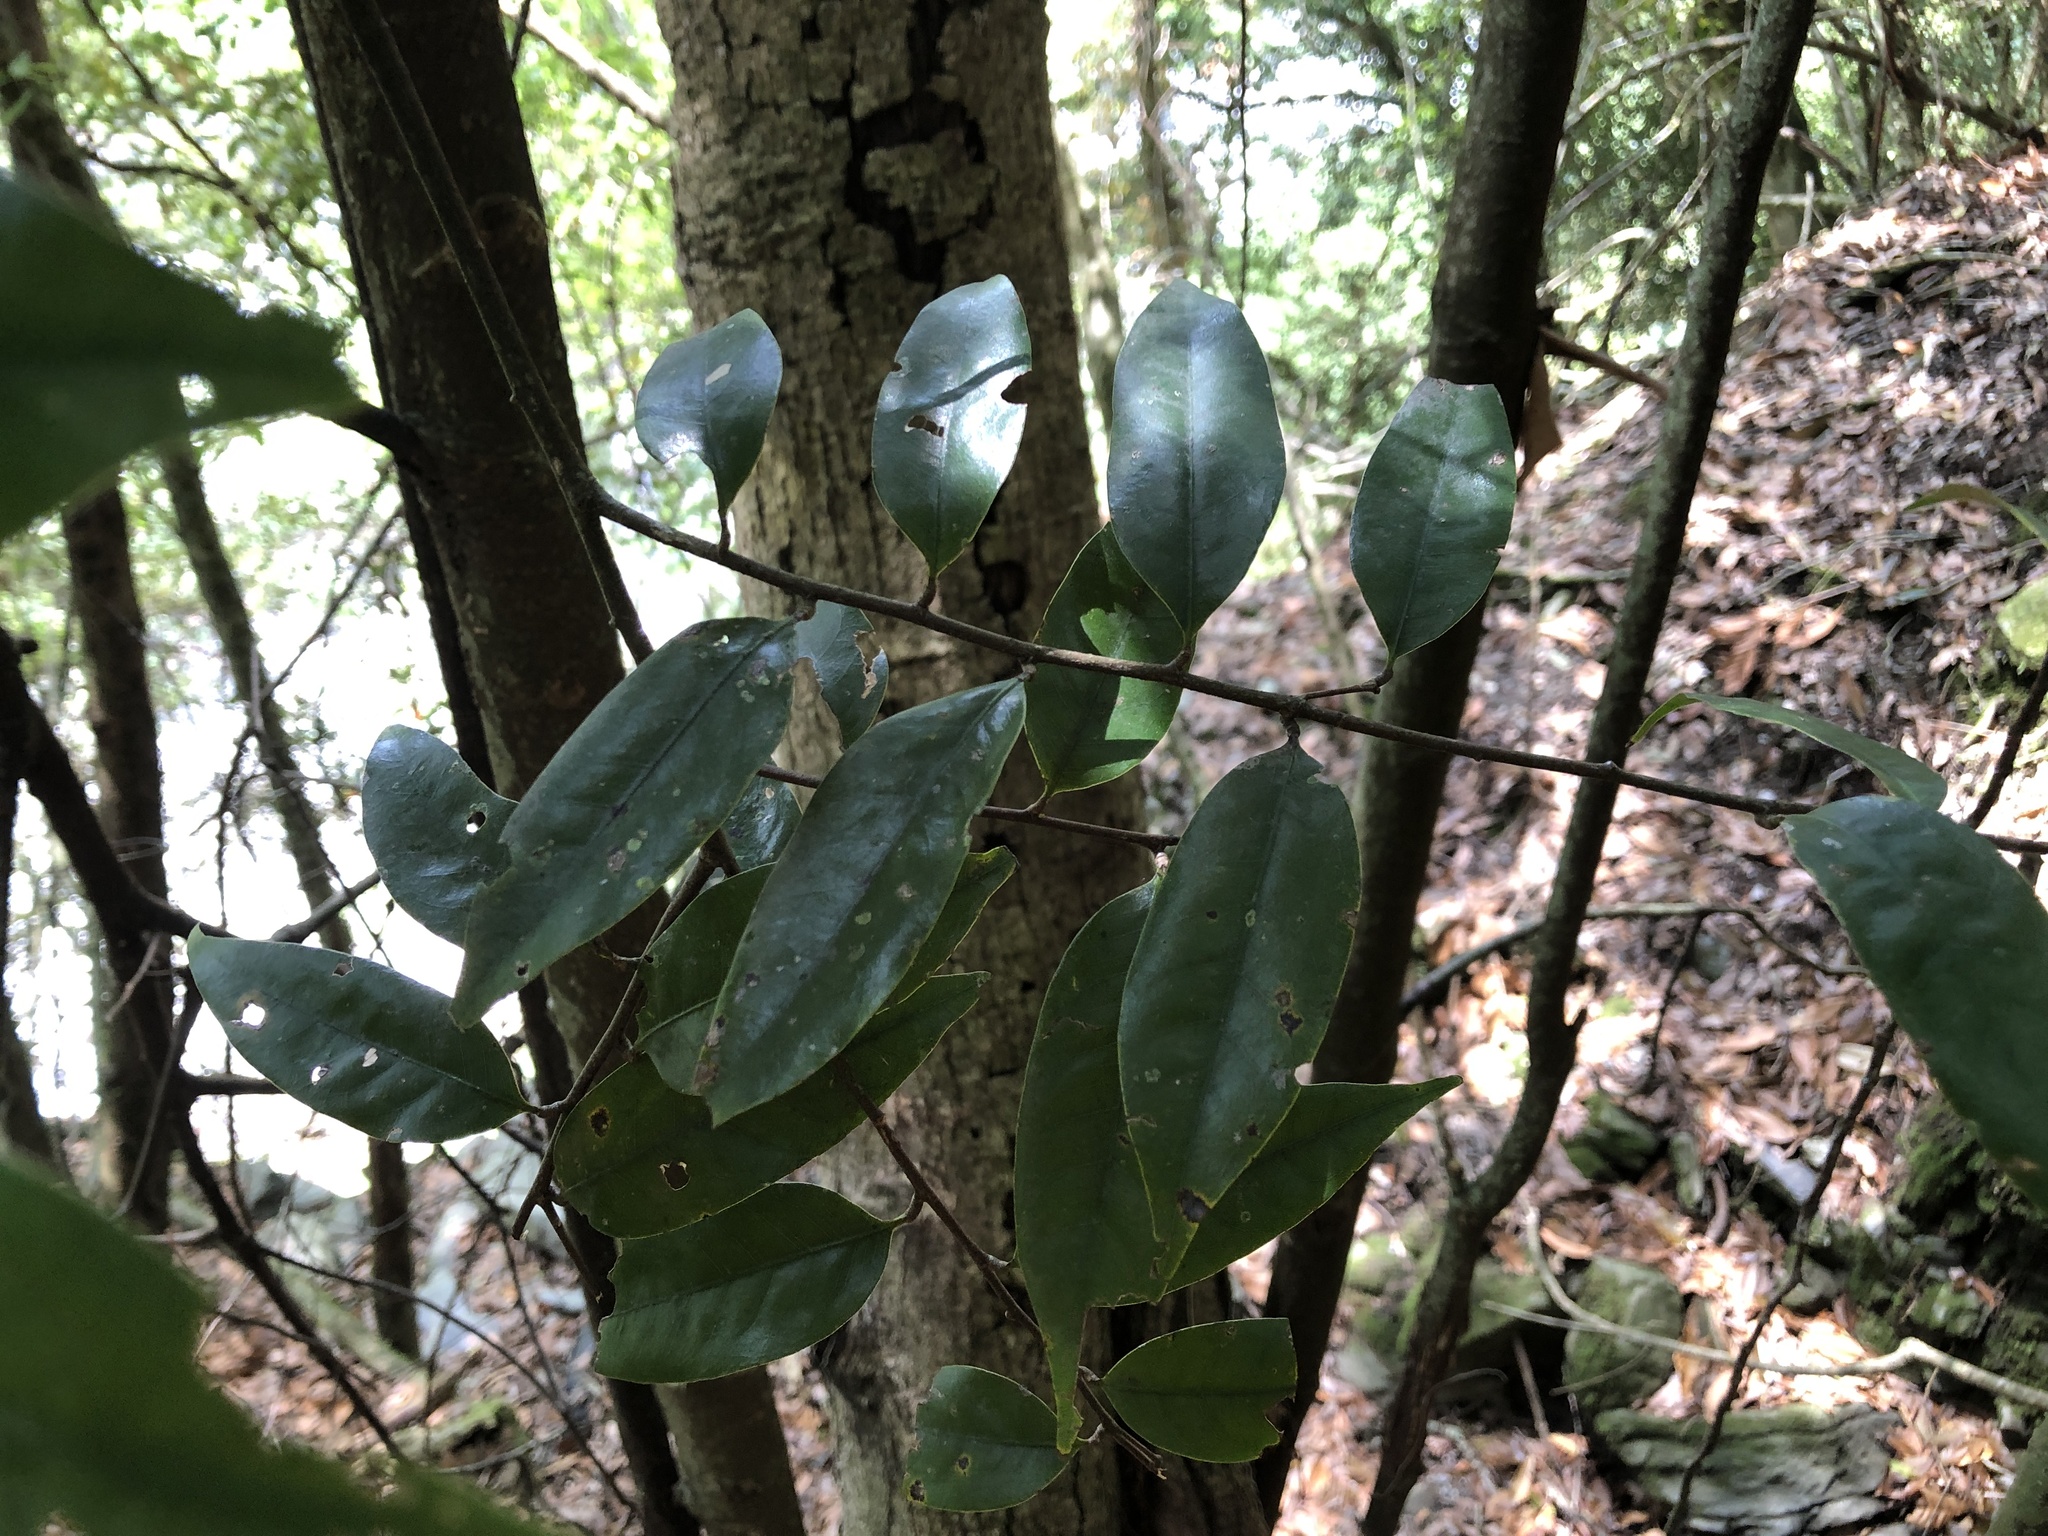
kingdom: Plantae
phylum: Tracheophyta
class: Magnoliopsida
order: Fagales
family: Fagaceae
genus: Castanopsis
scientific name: Castanopsis carlesii
